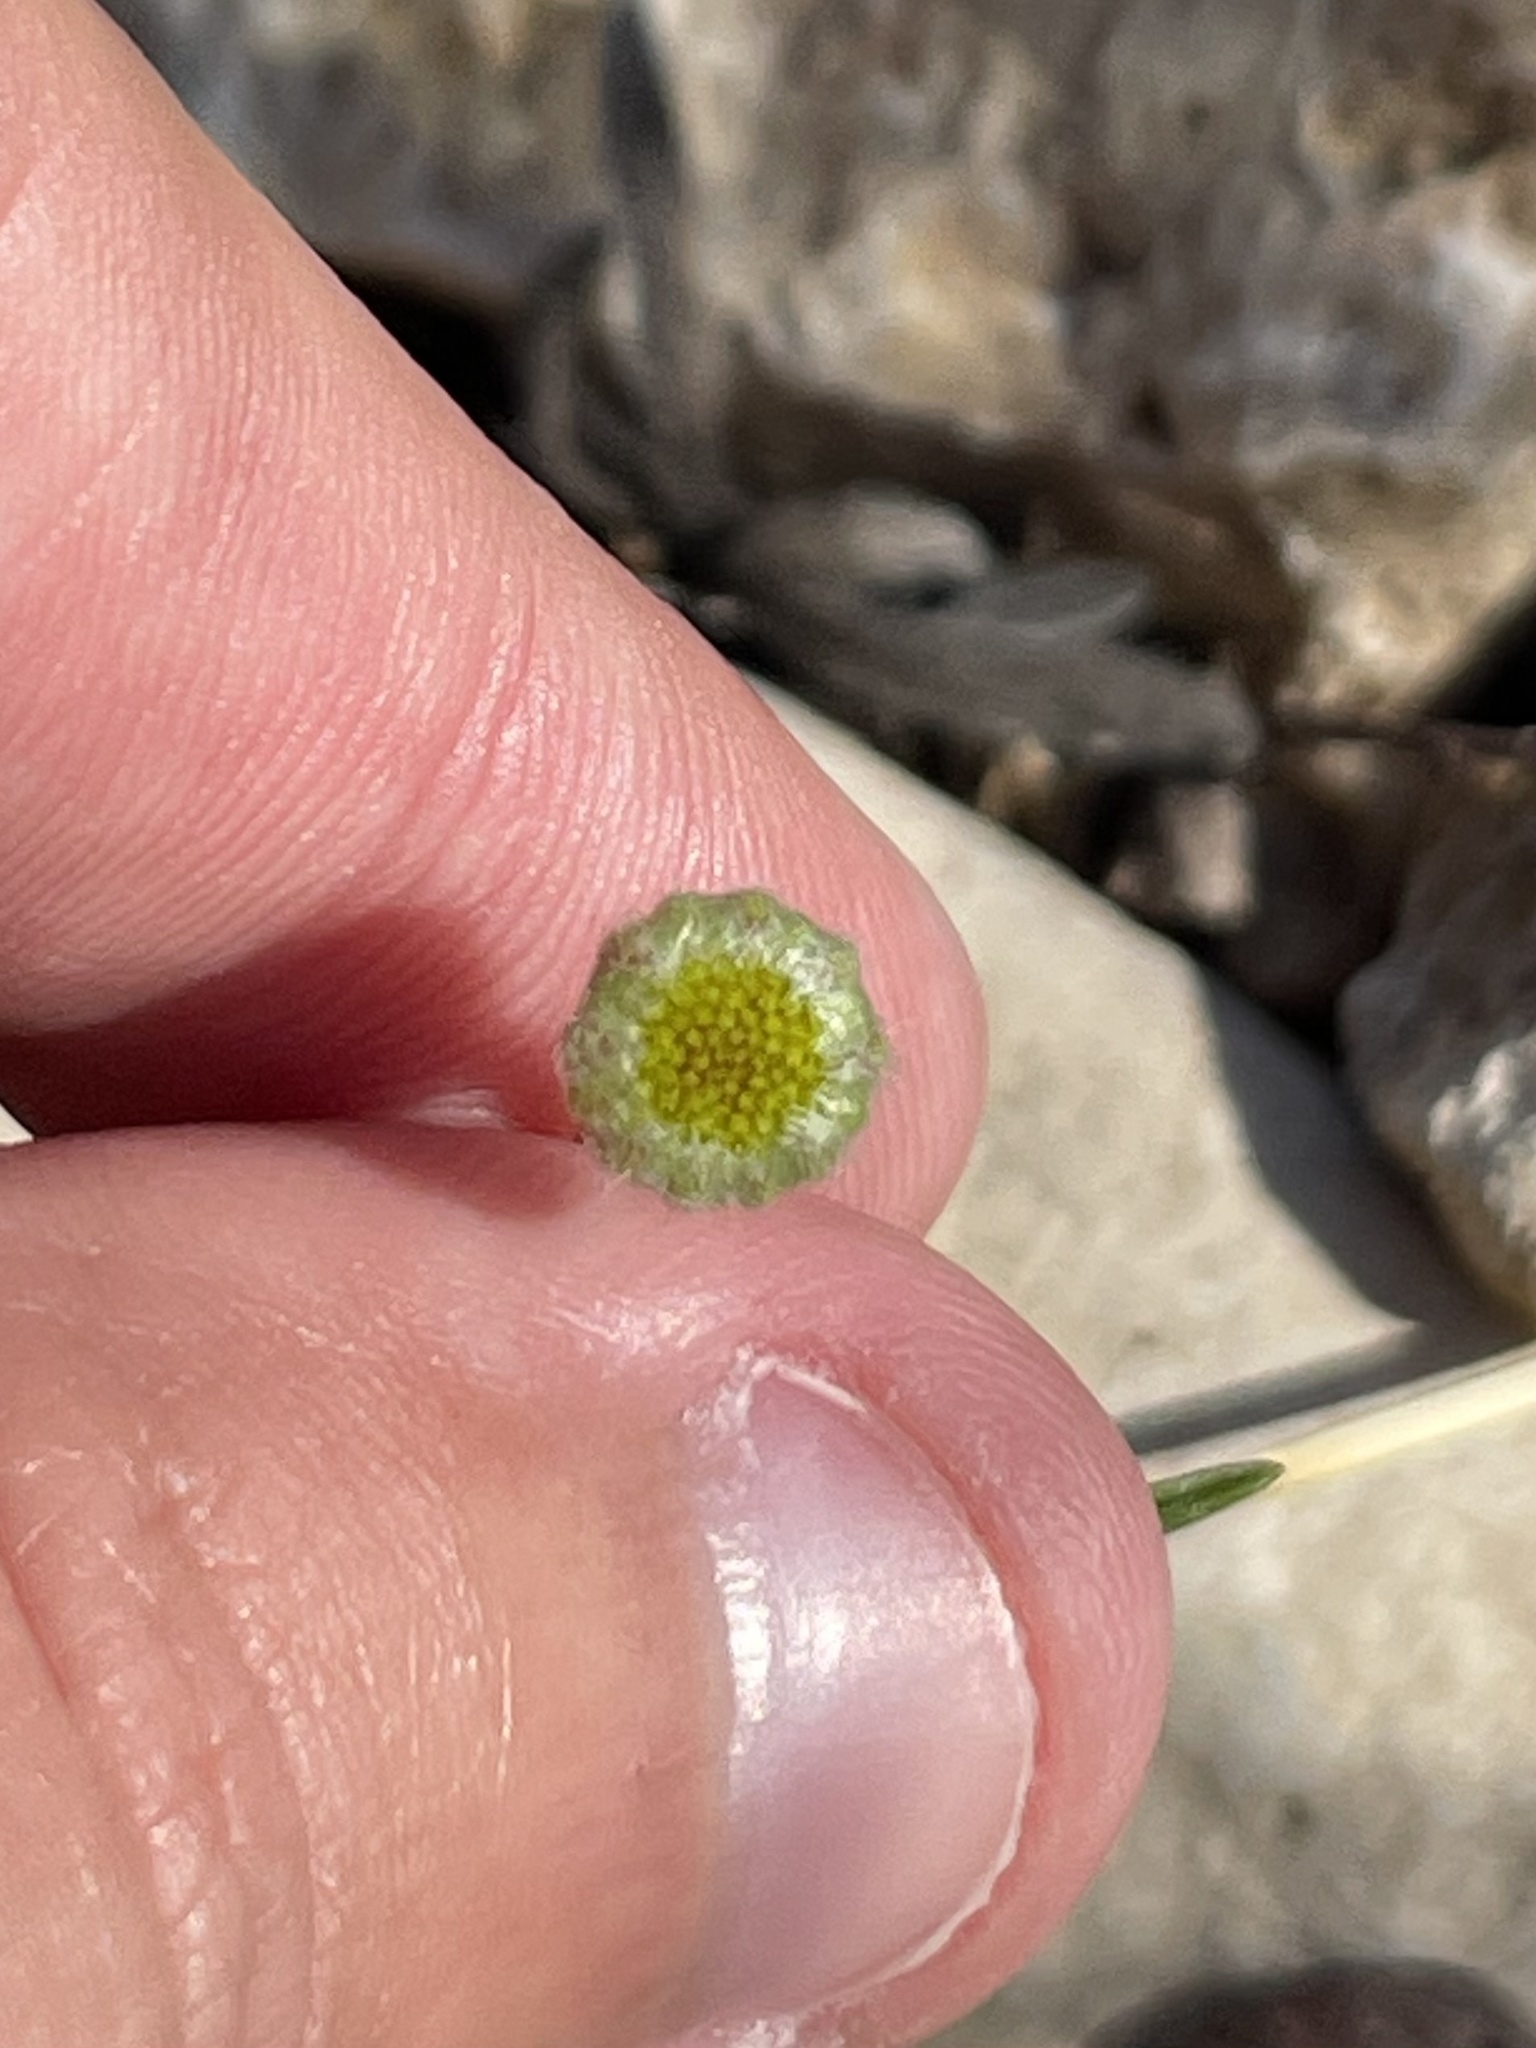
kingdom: Plantae
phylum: Tracheophyta
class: Magnoliopsida
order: Asterales
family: Asteraceae
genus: Tetraneuris
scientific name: Tetraneuris linearifolia
